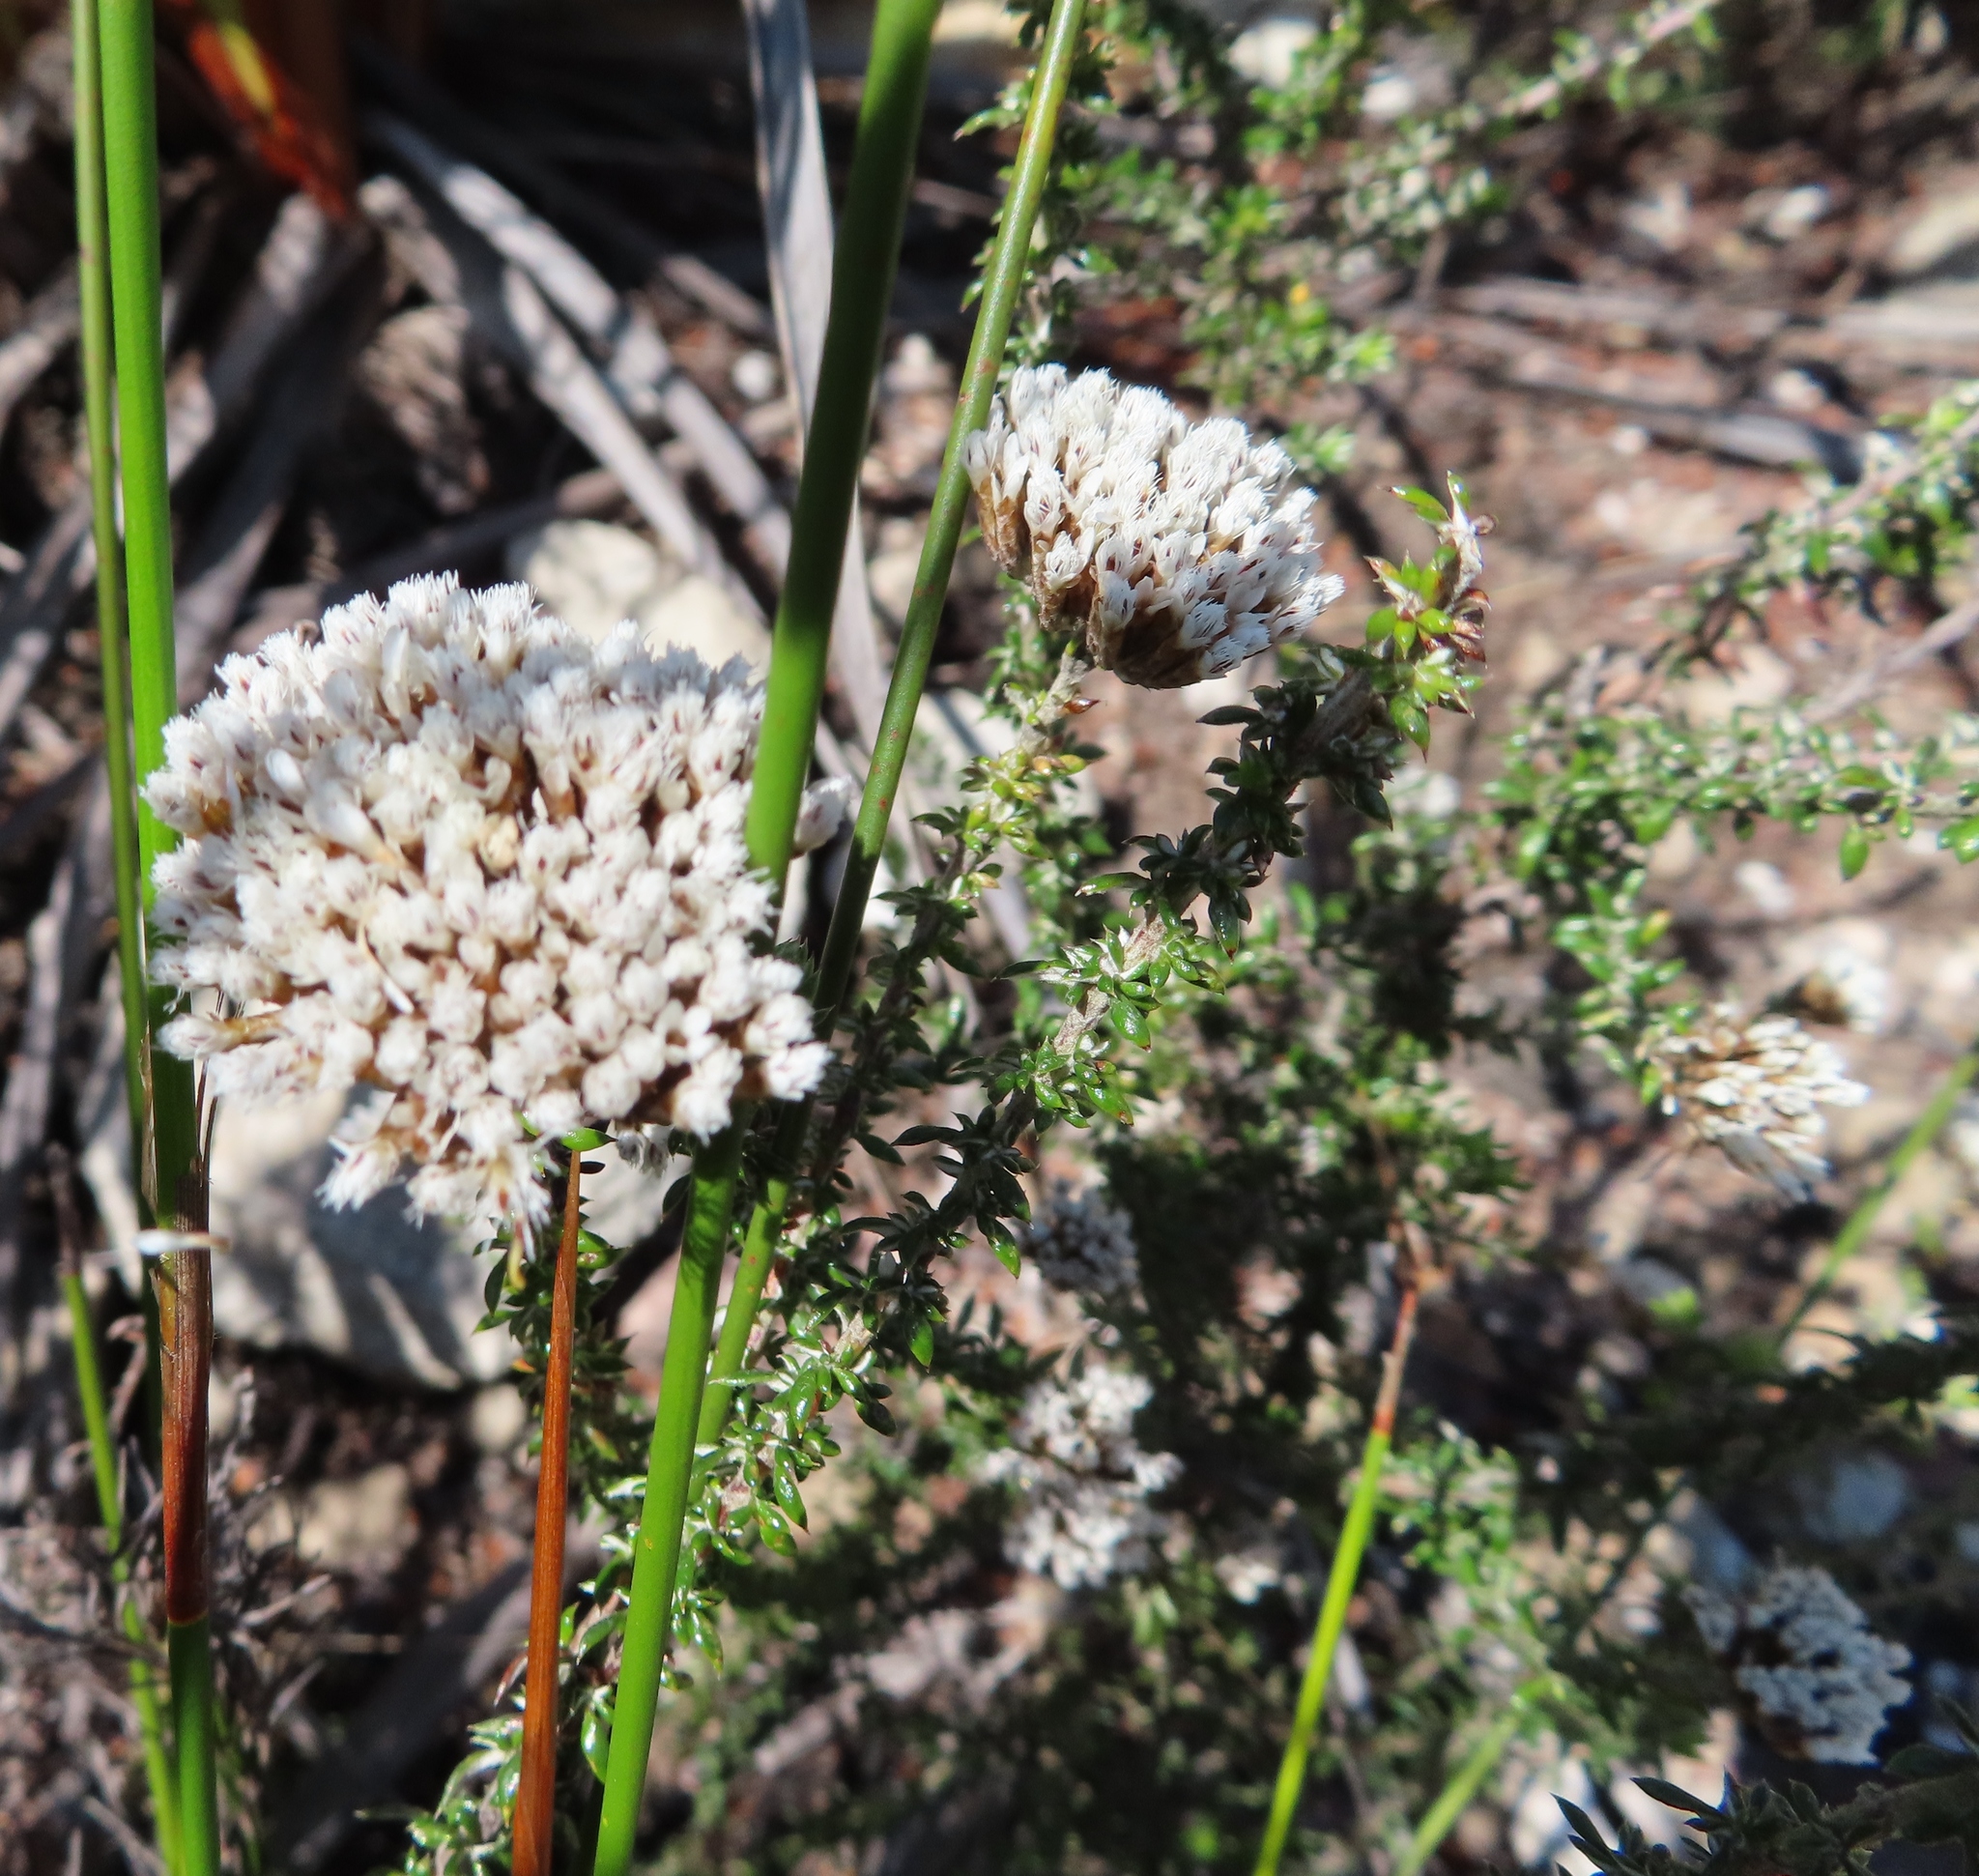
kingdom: Plantae
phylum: Tracheophyta
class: Magnoliopsida
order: Asterales
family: Asteraceae
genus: Metalasia
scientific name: Metalasia densa
